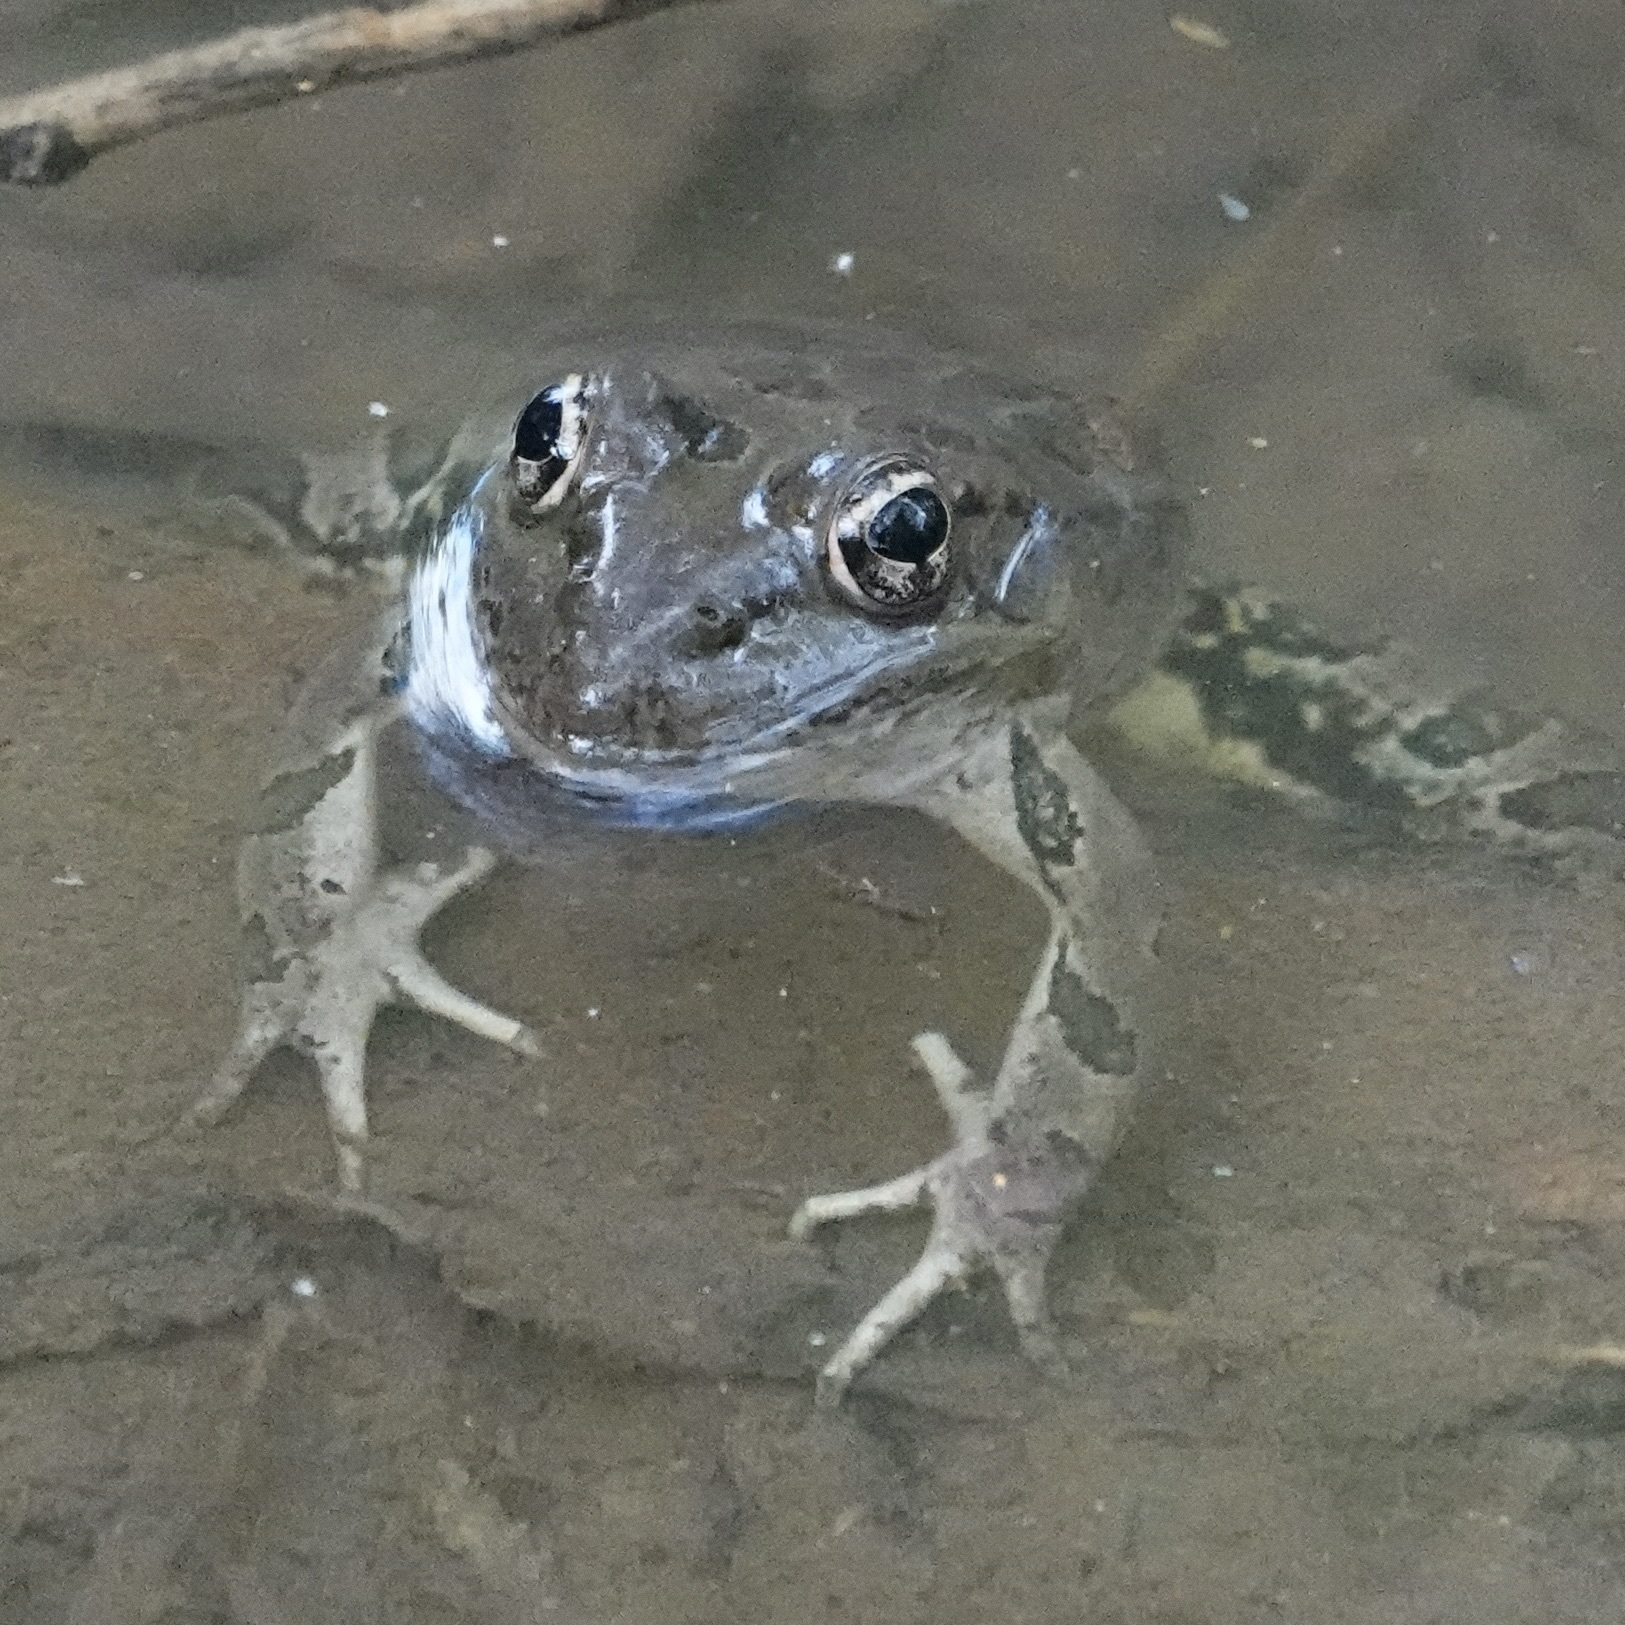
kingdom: Animalia
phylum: Chordata
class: Amphibia
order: Anura
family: Ranidae
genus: Lithobates
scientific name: Lithobates berlandieri
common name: Rio grande leopard frog
